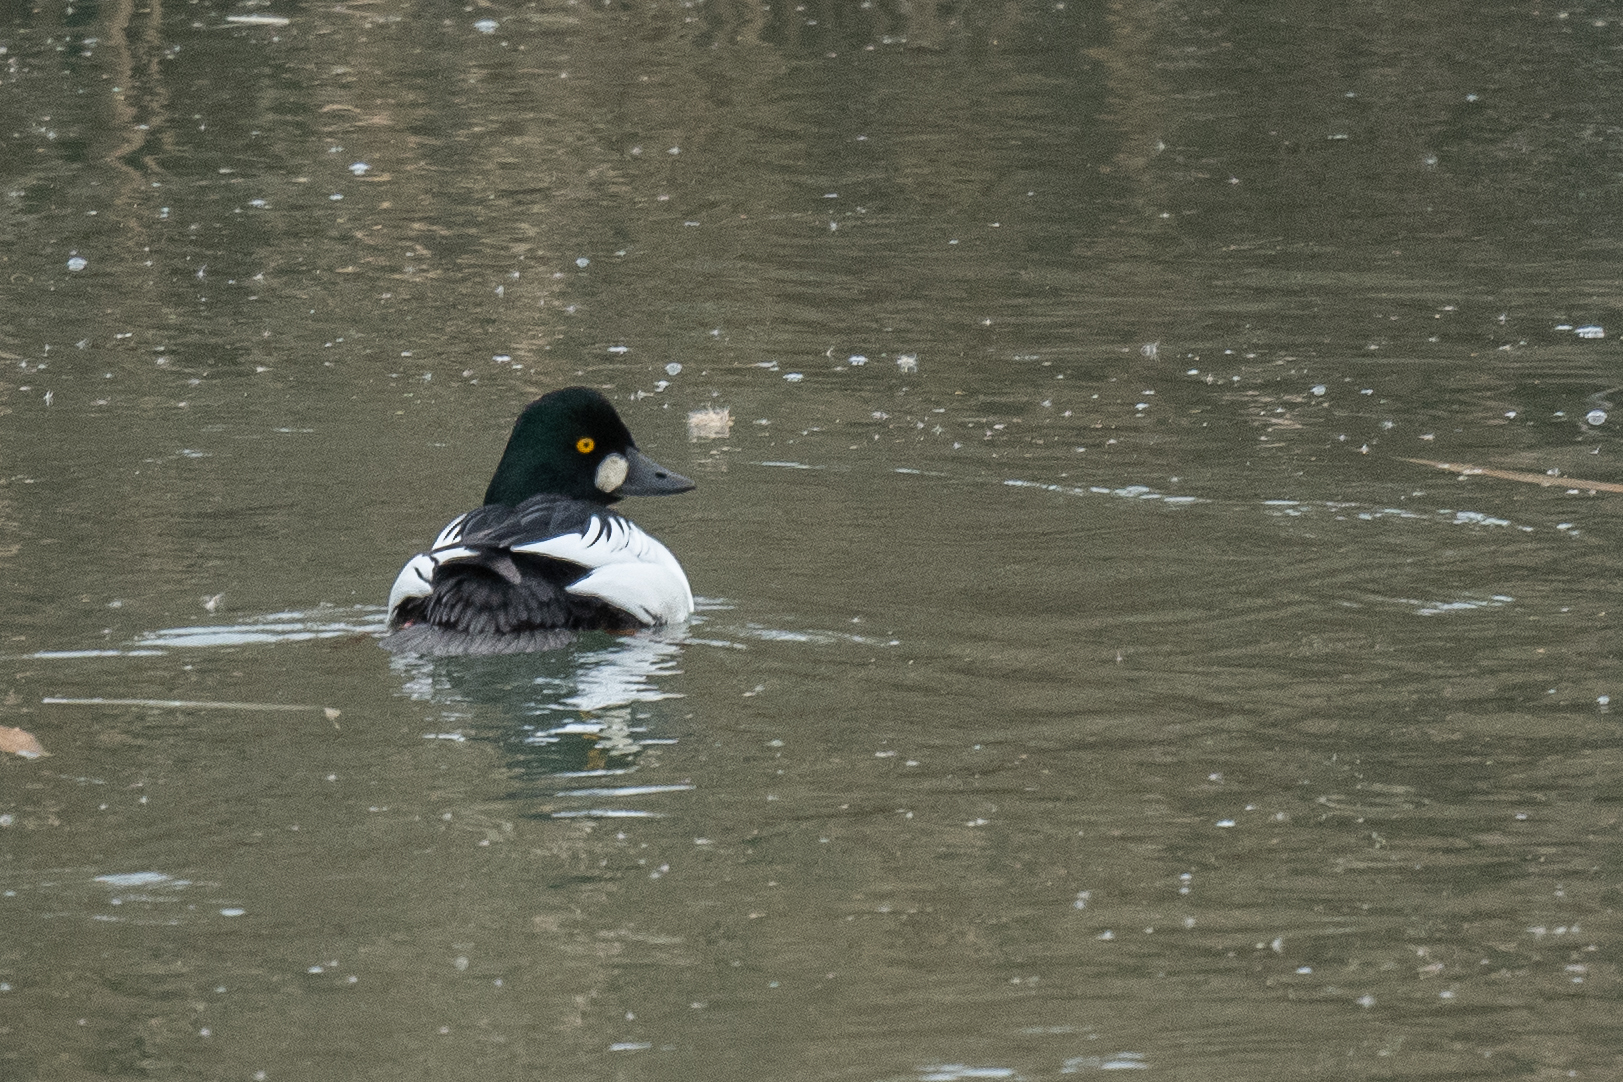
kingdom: Animalia
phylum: Chordata
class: Aves
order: Anseriformes
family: Anatidae
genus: Bucephala
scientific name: Bucephala clangula
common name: Common goldeneye
